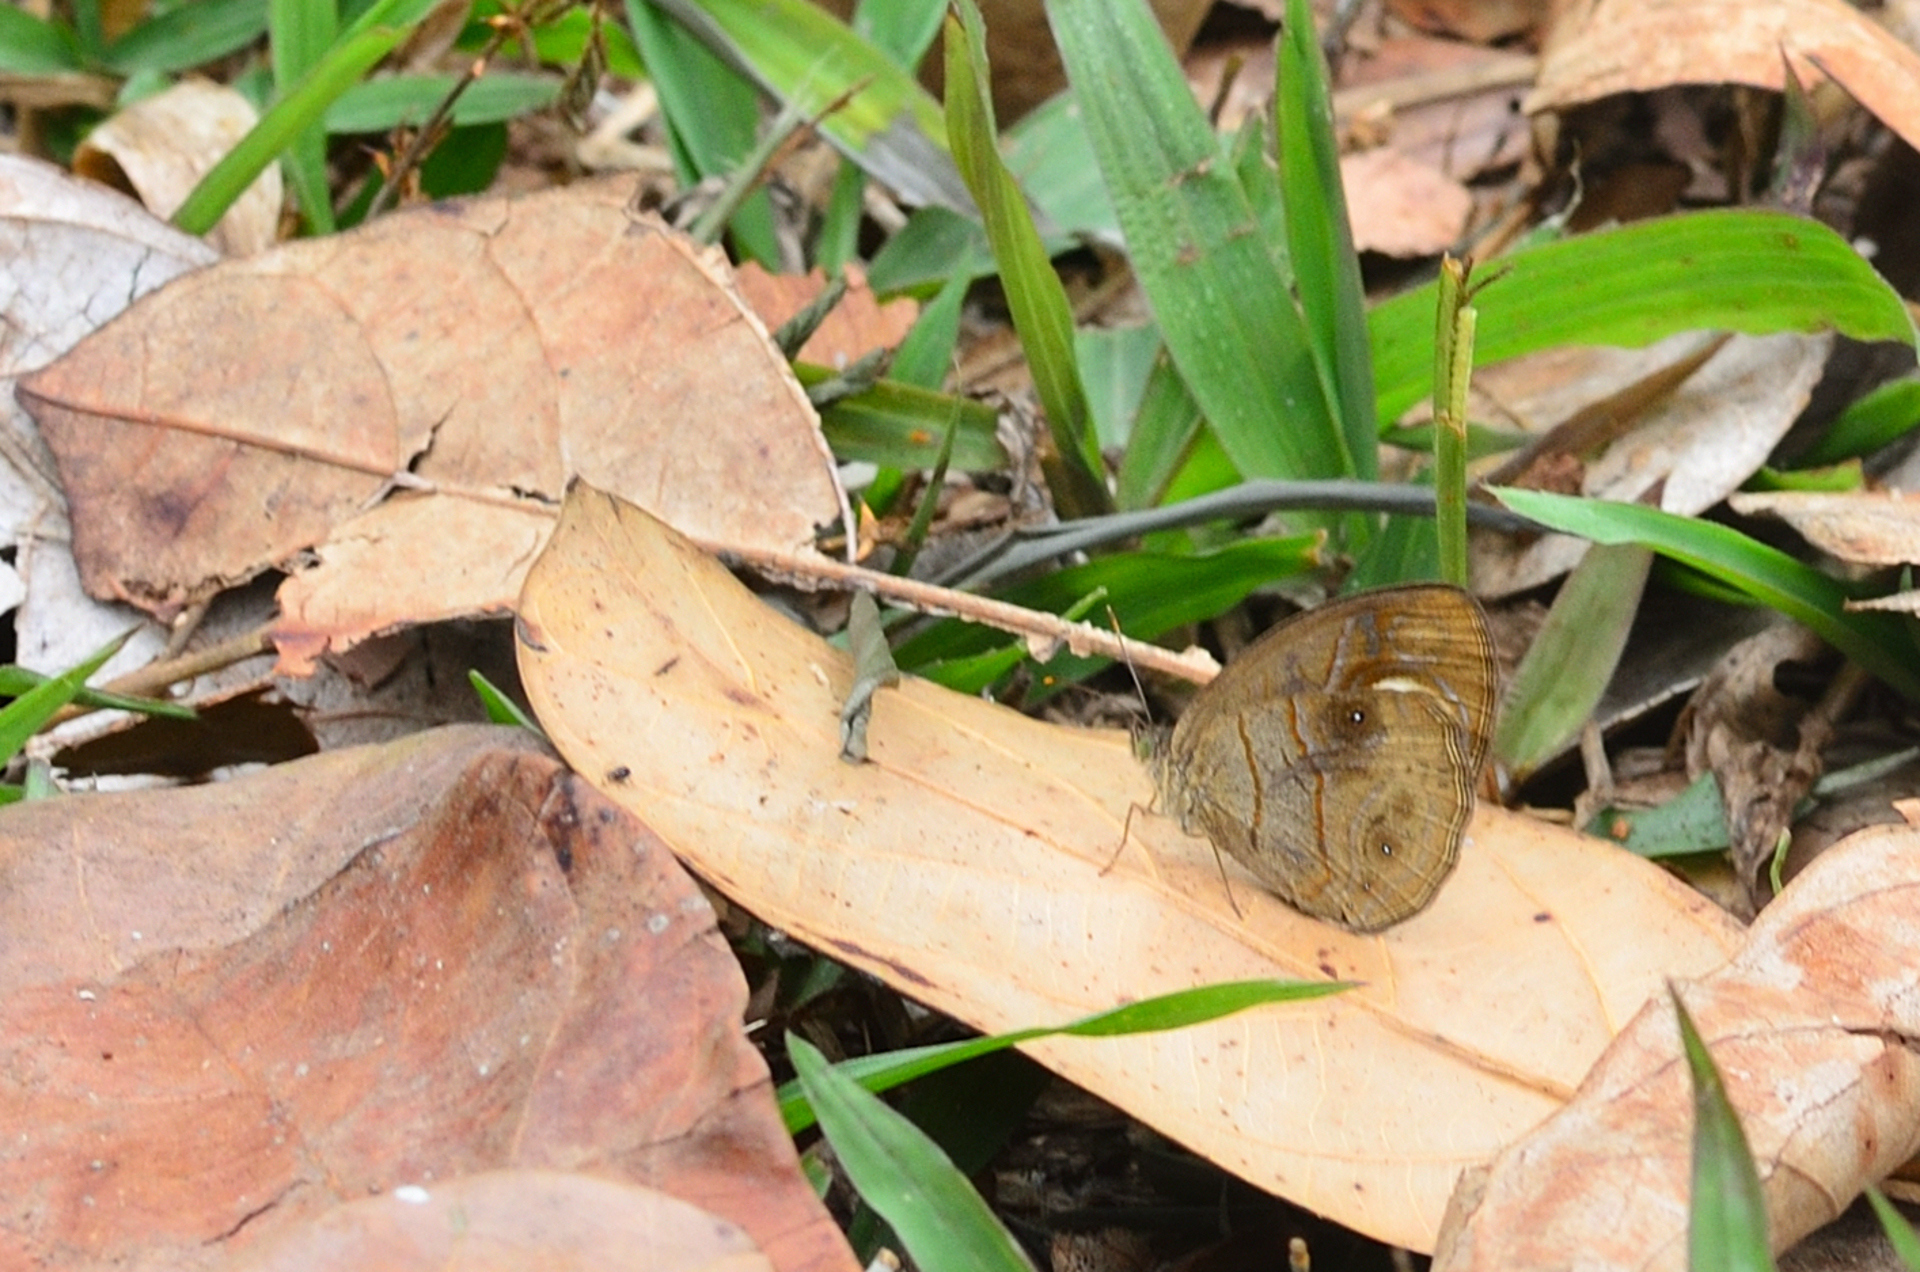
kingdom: Animalia
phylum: Arthropoda
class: Insecta
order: Lepidoptera
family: Nymphalidae
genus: Mycalesis
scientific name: Mycalesis patnia
